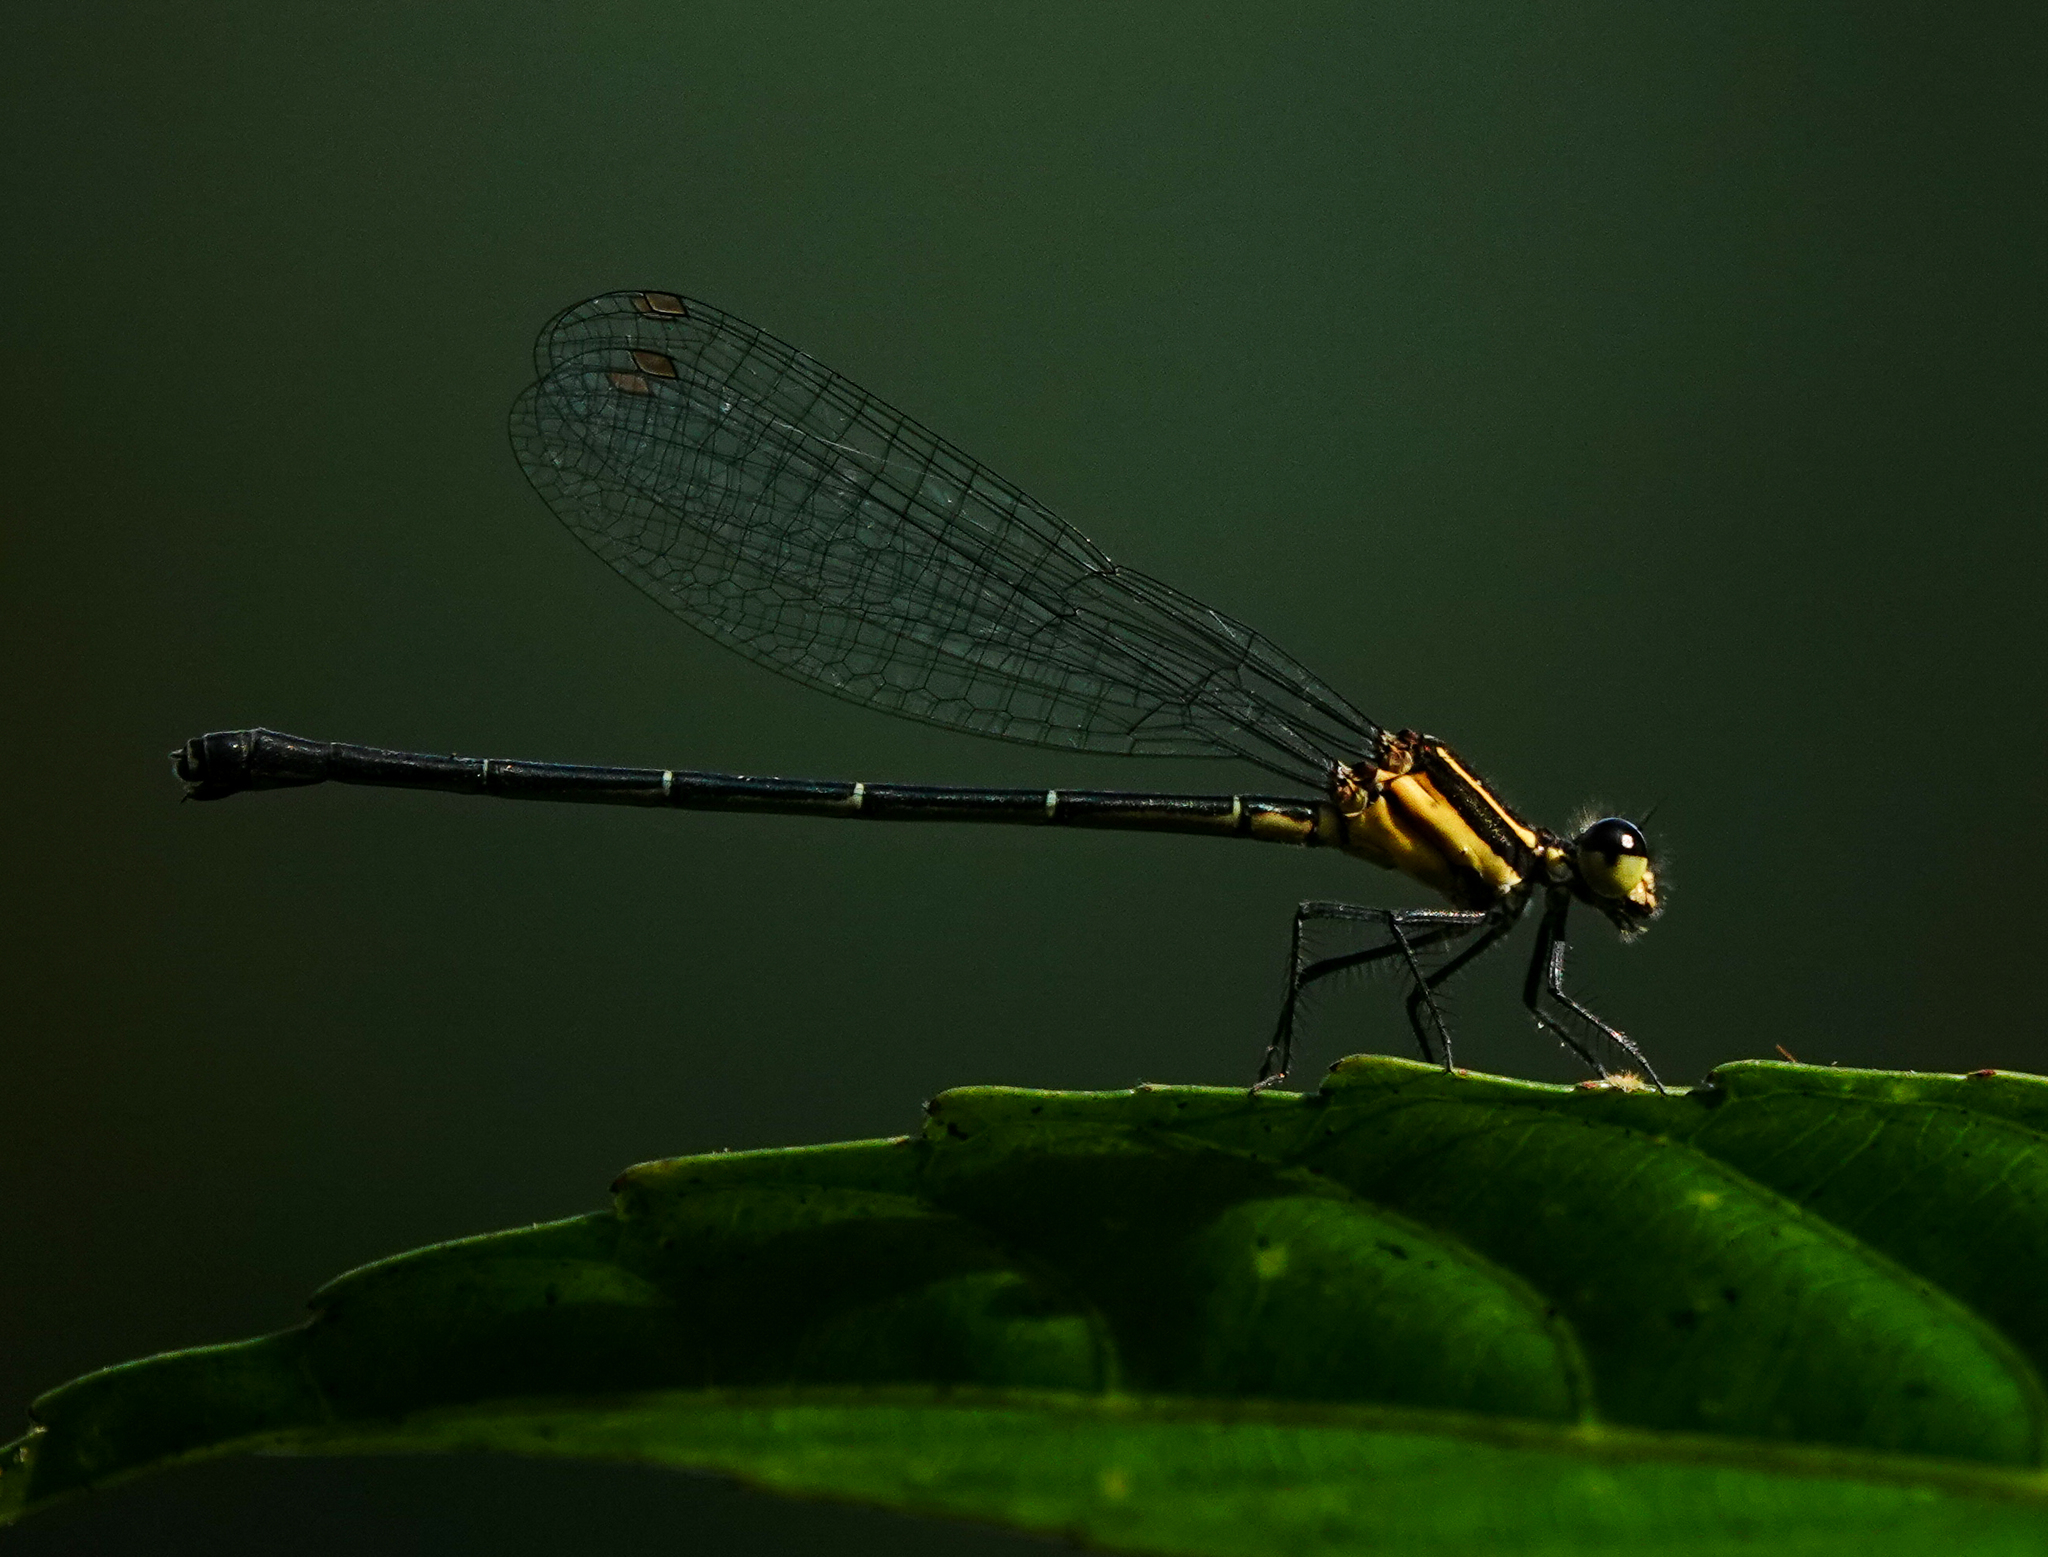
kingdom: Animalia
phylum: Arthropoda
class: Insecta
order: Odonata
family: Platycnemididae
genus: Onychargia
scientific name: Onychargia atrocyana
